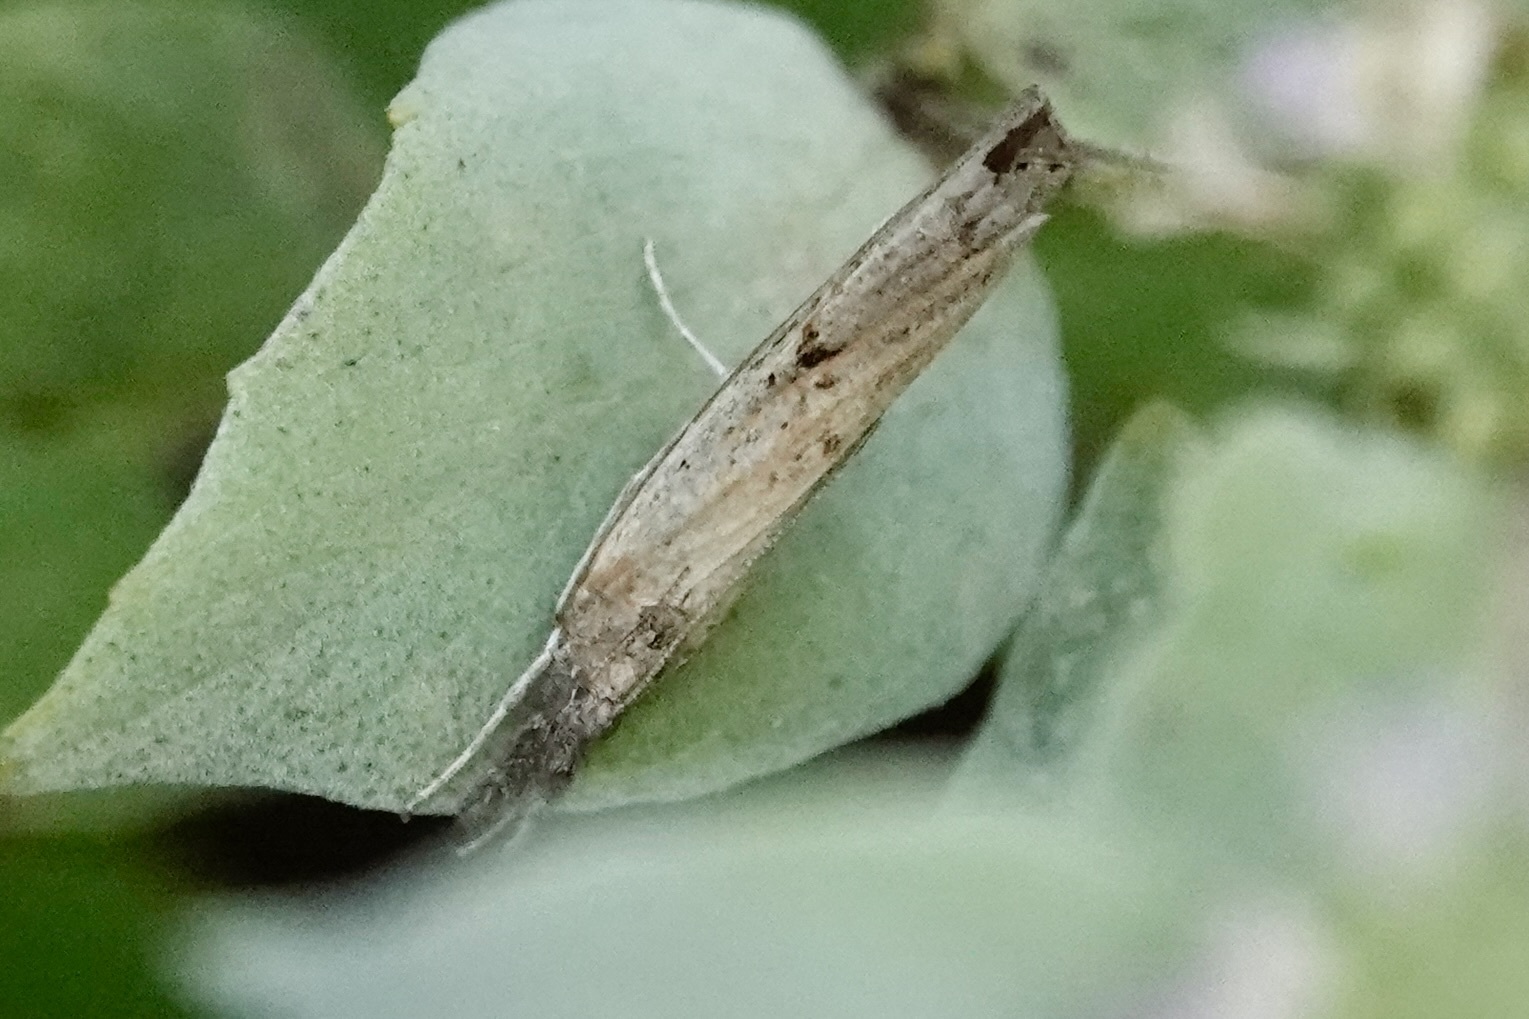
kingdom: Animalia
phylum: Arthropoda
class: Insecta
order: Lepidoptera
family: Crambidae
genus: Fissicrambus
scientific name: Fissicrambus mutabilis
